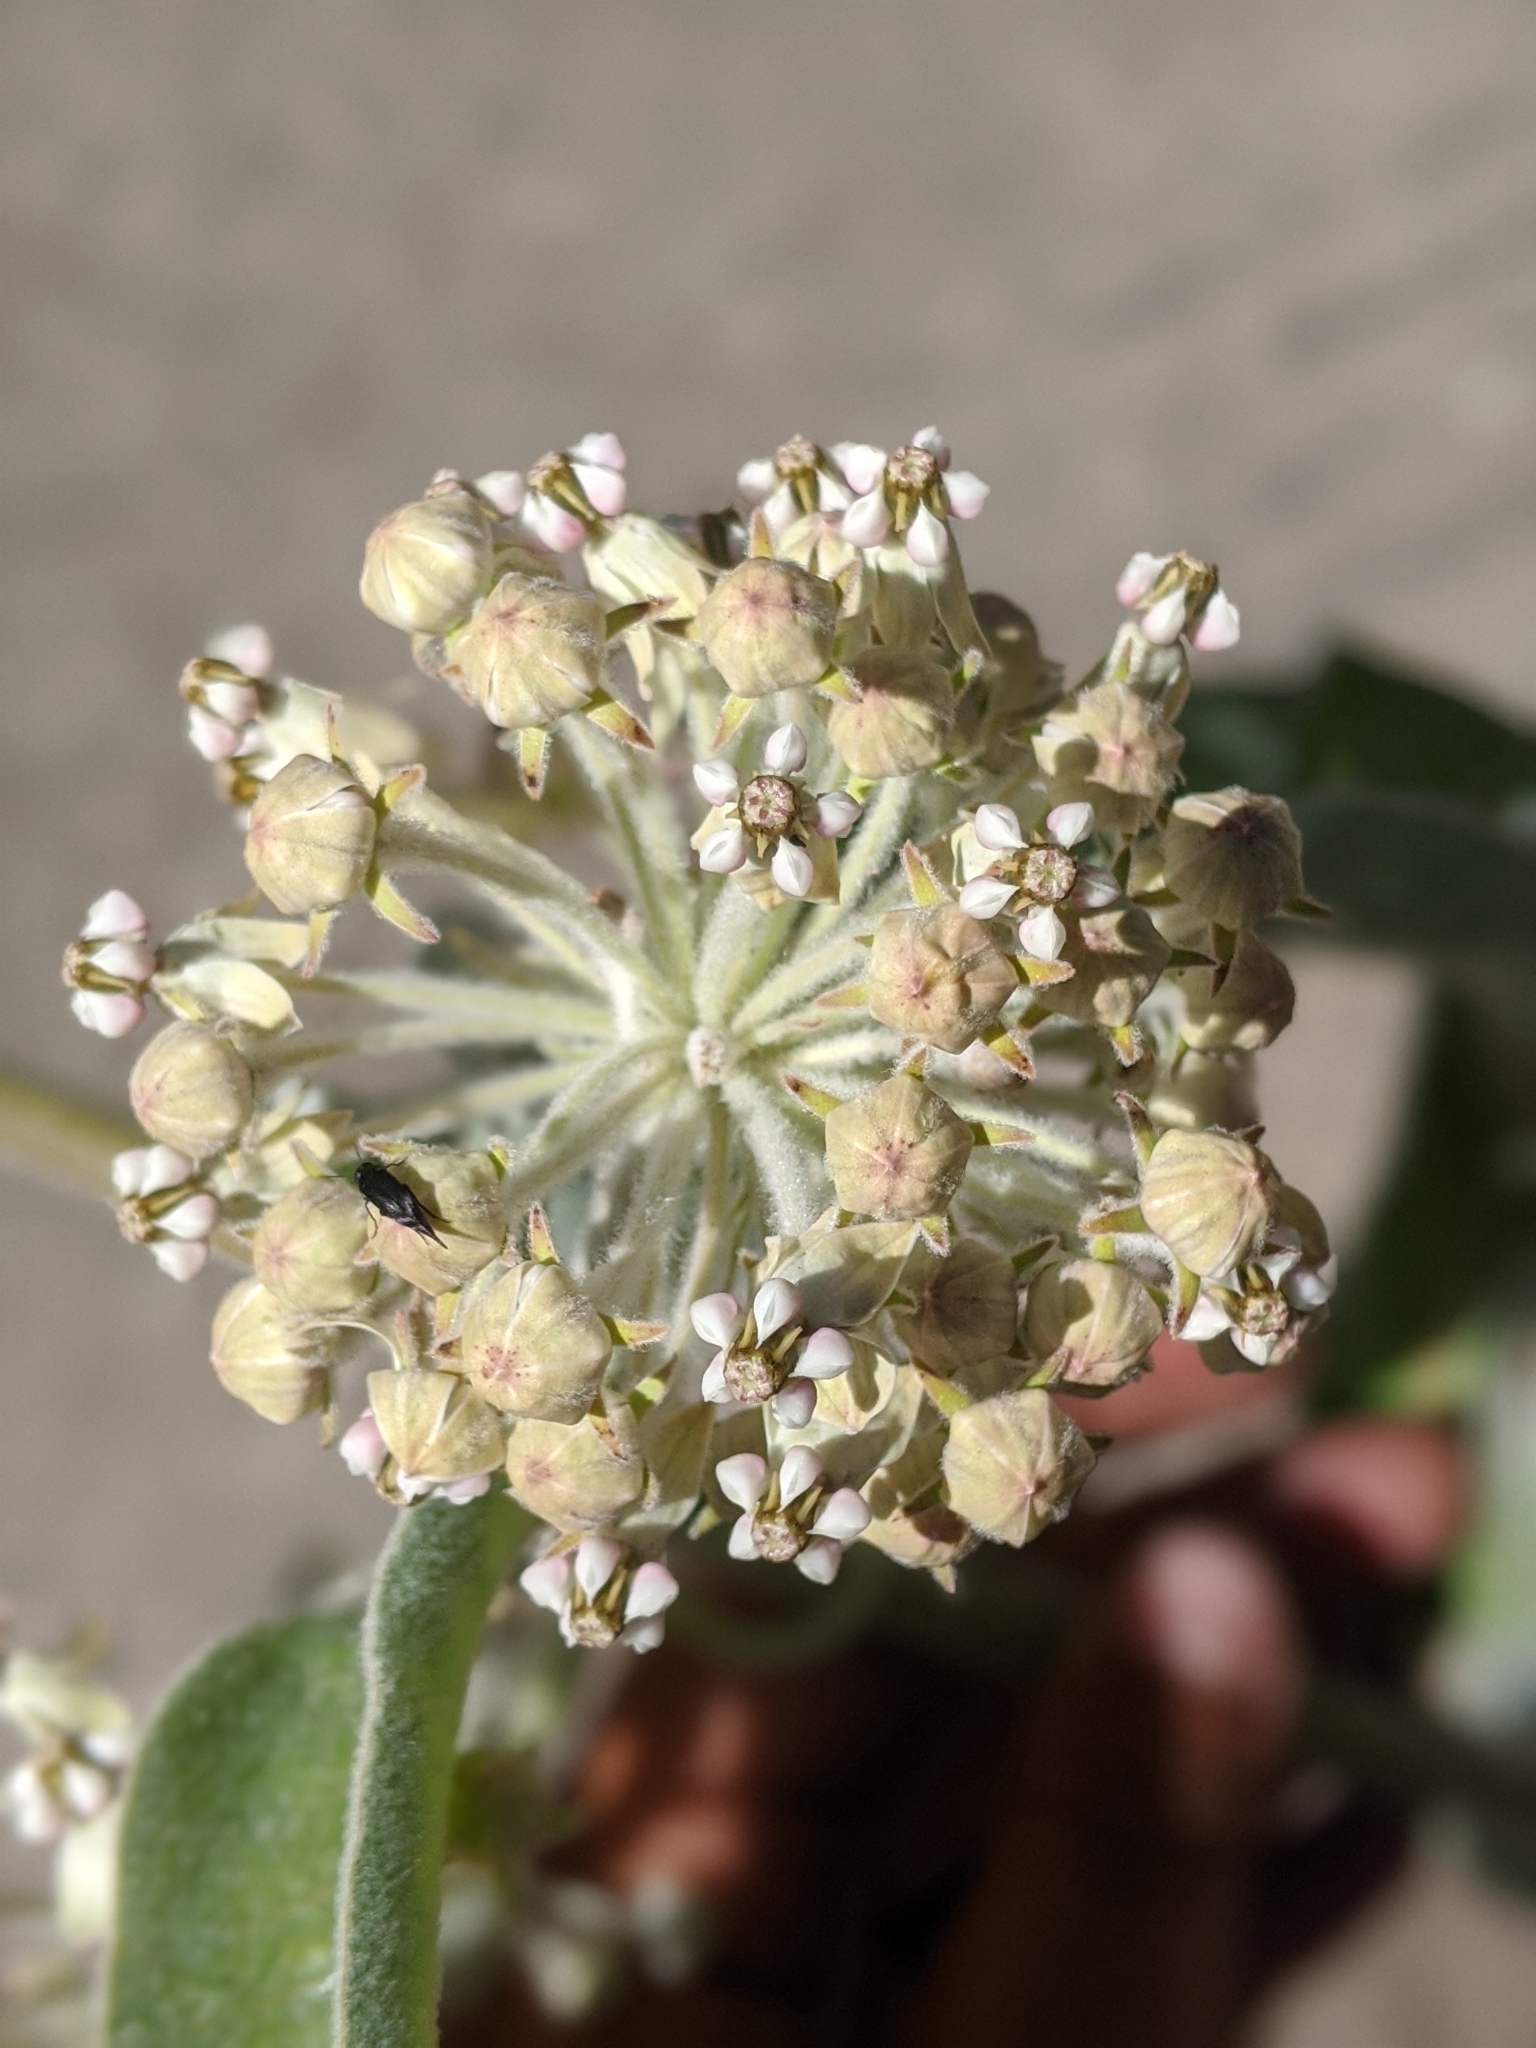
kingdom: Plantae
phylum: Tracheophyta
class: Magnoliopsida
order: Gentianales
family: Apocynaceae
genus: Asclepias
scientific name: Asclepias eriocarpa
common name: Indian milkweed
